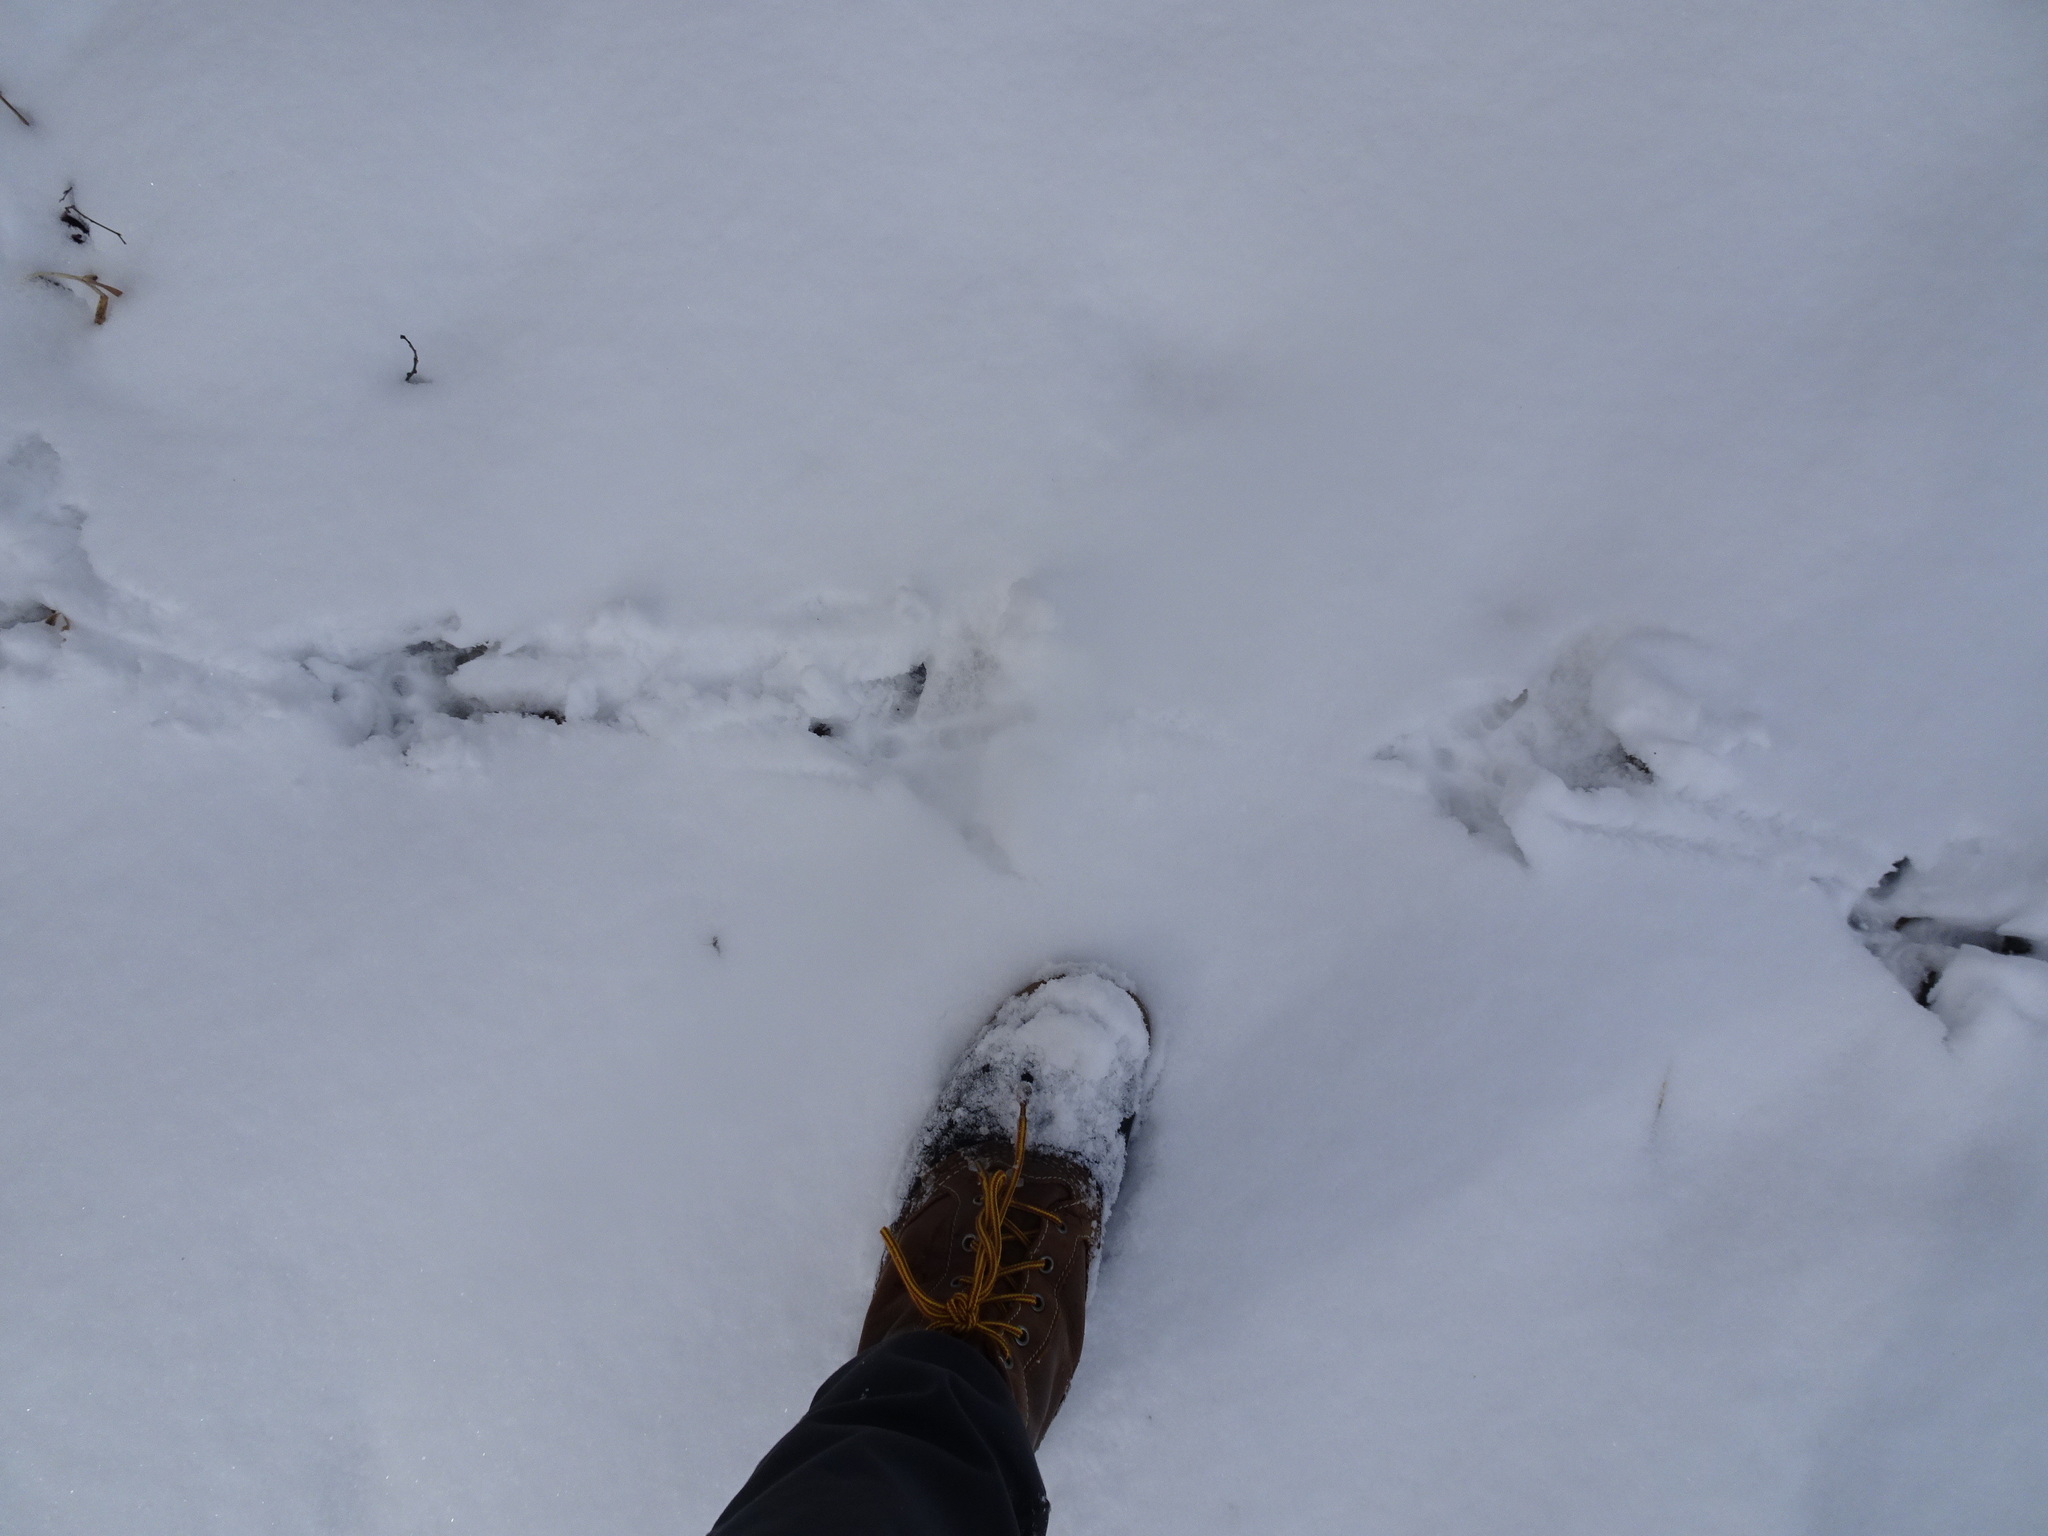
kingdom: Animalia
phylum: Chordata
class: Aves
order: Galliformes
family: Phasianidae
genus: Meleagris
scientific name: Meleagris gallopavo
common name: Wild turkey
